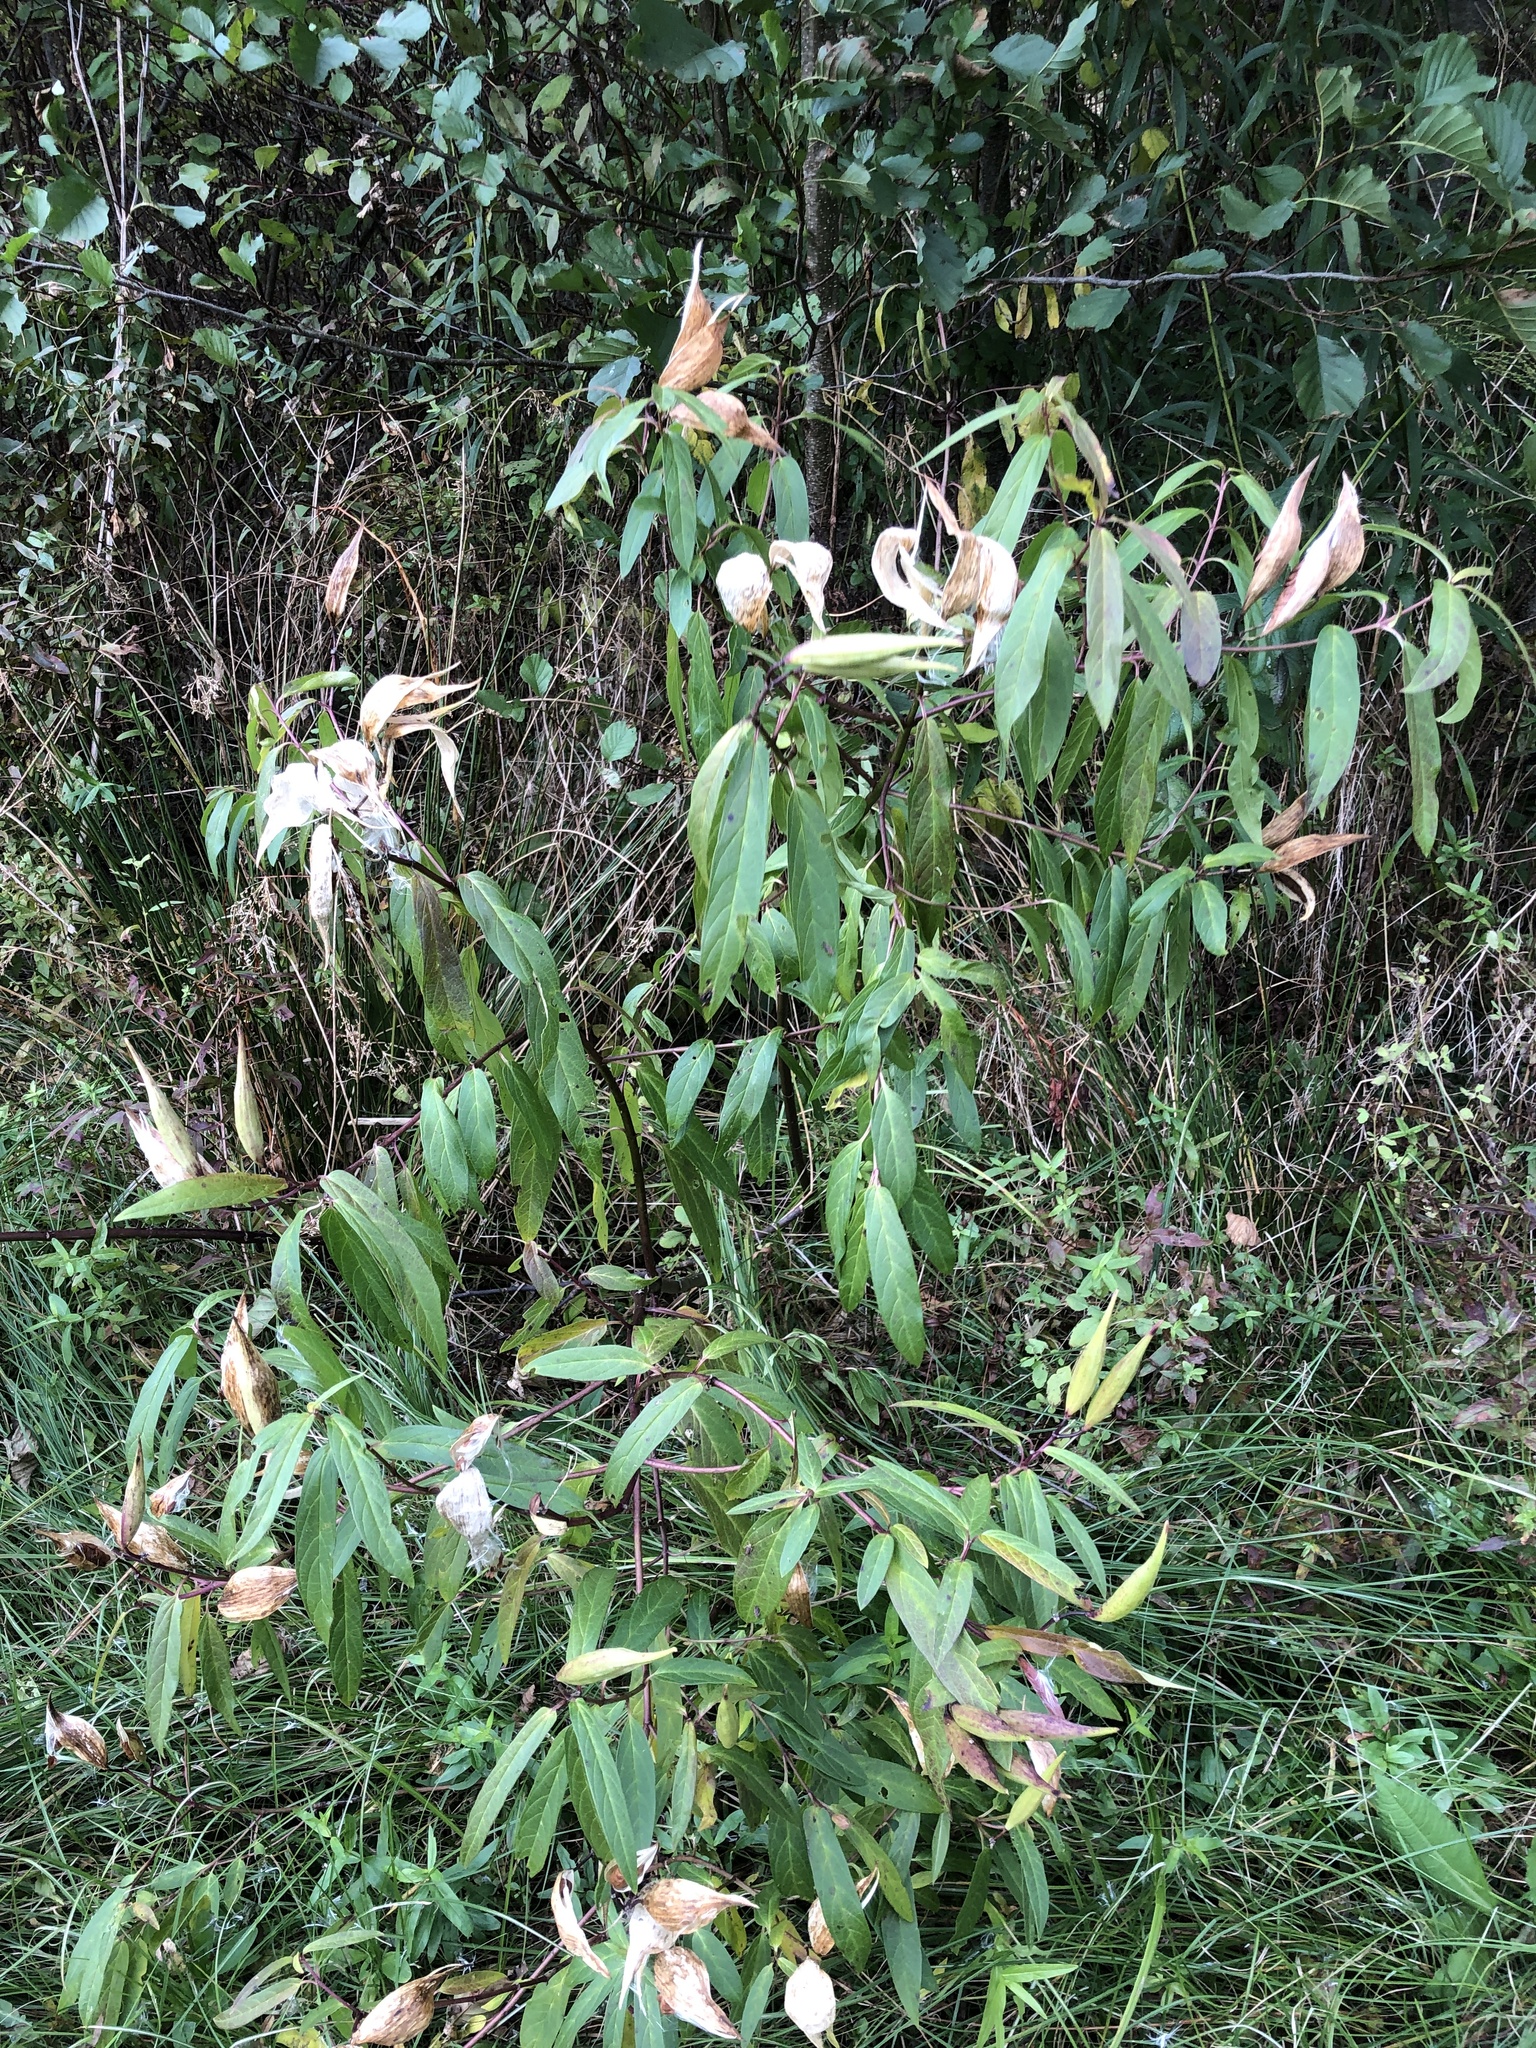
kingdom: Plantae
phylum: Tracheophyta
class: Magnoliopsida
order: Gentianales
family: Apocynaceae
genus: Asclepias
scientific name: Asclepias incarnata
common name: Swamp milkweed
